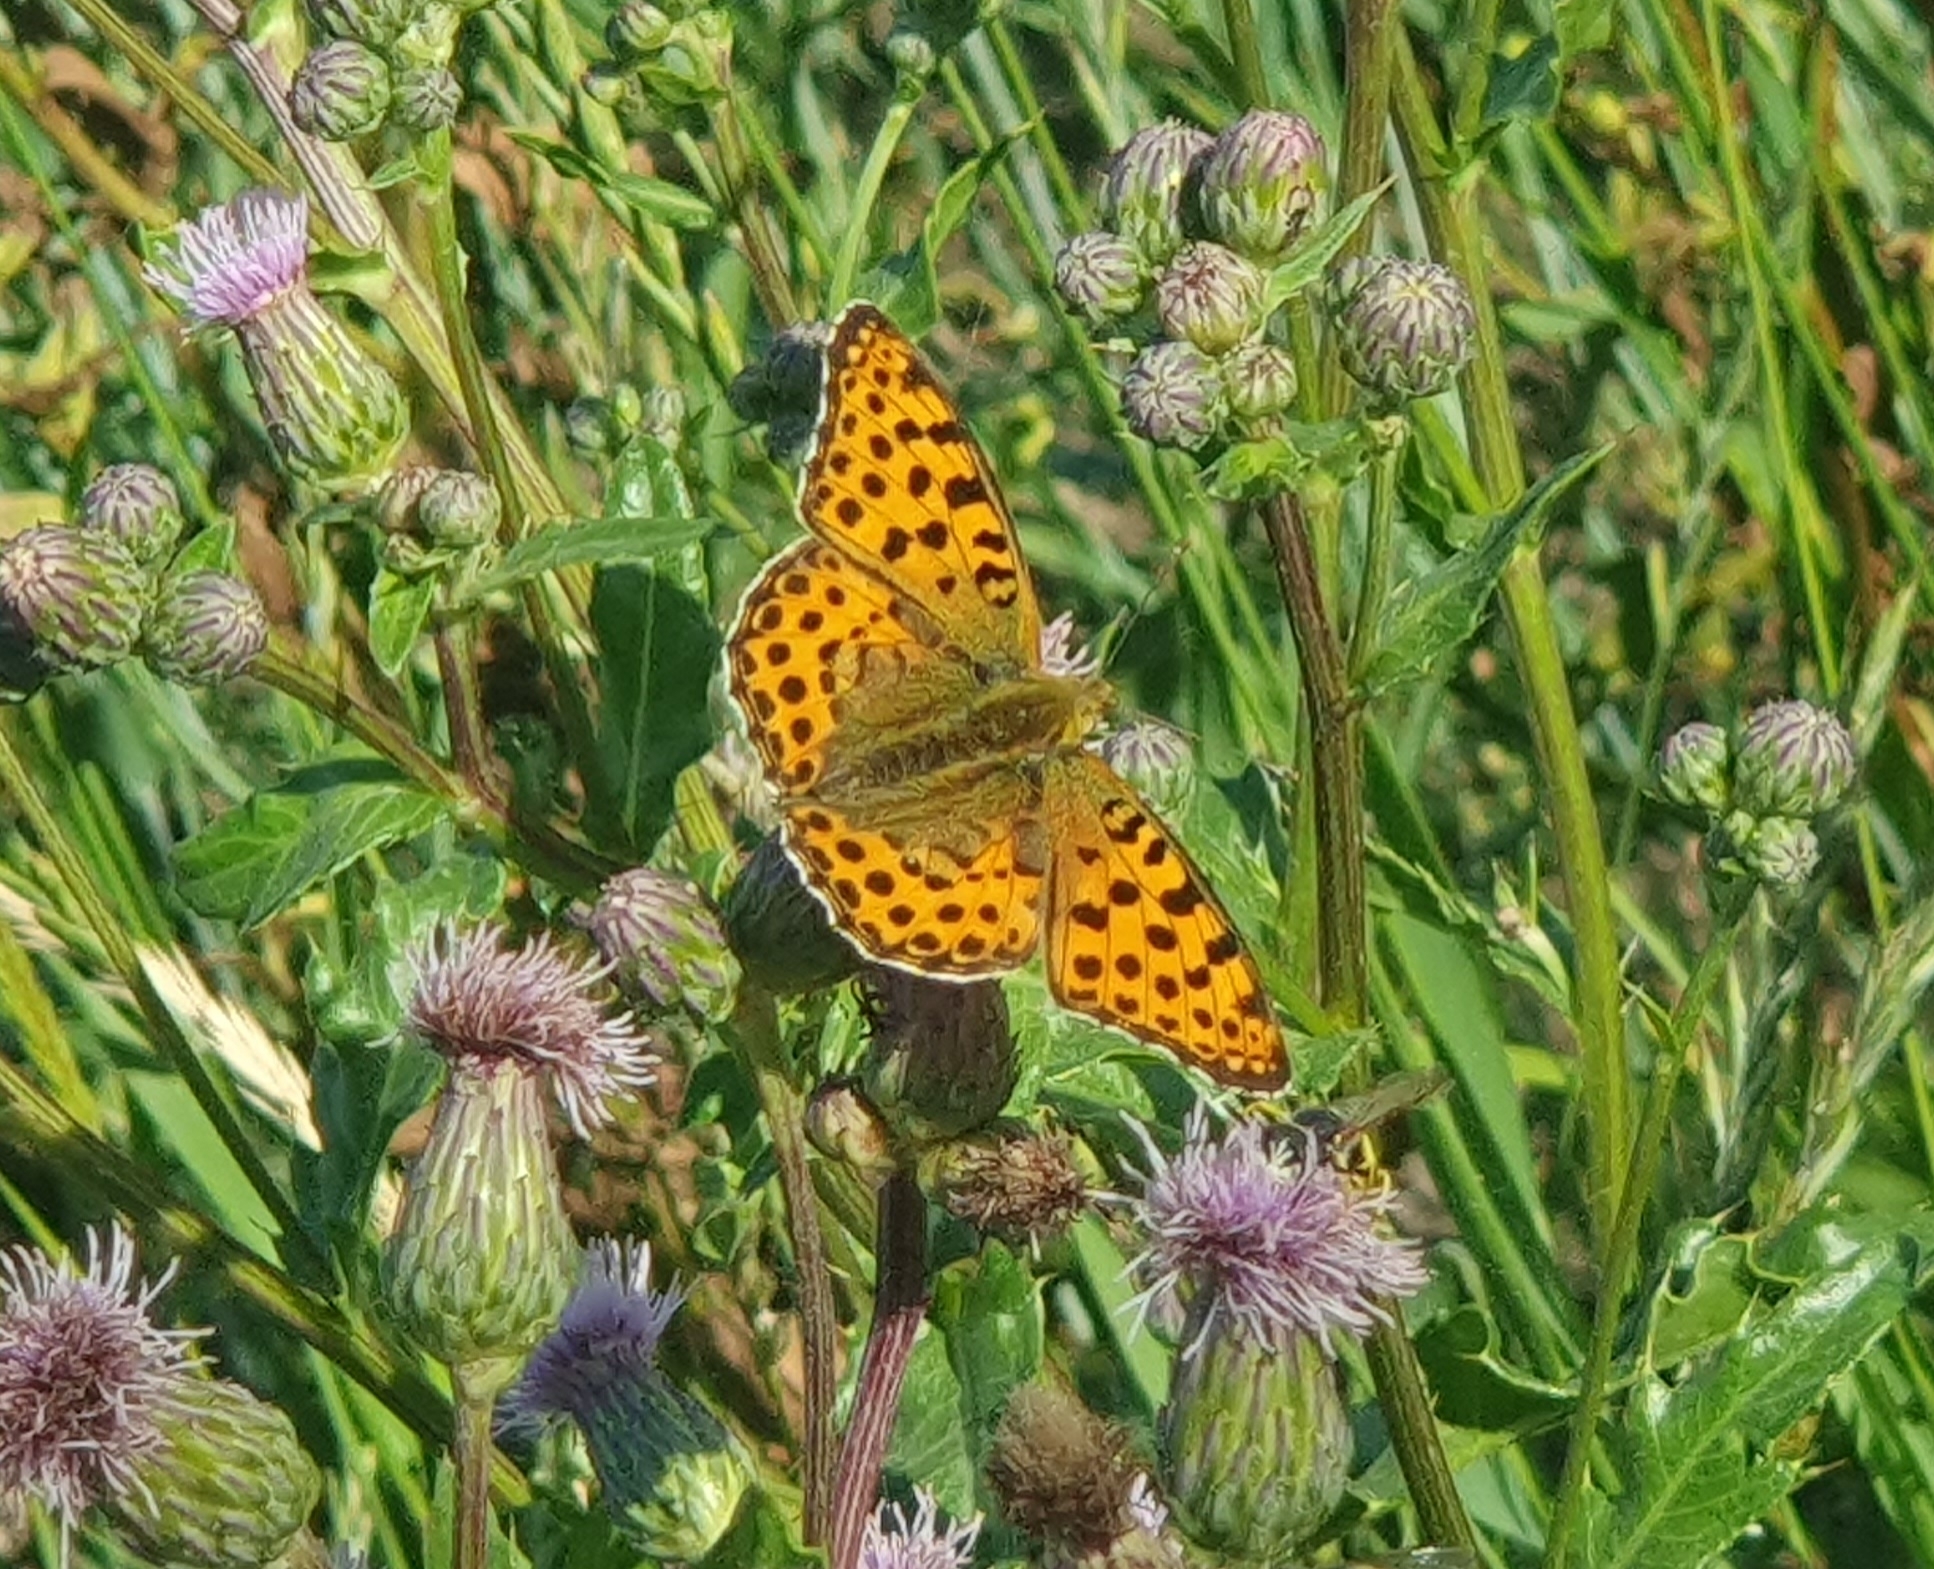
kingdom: Animalia
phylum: Arthropoda
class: Insecta
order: Lepidoptera
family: Nymphalidae
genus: Issoria
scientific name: Issoria lathonia
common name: Queen of spain fritillary
